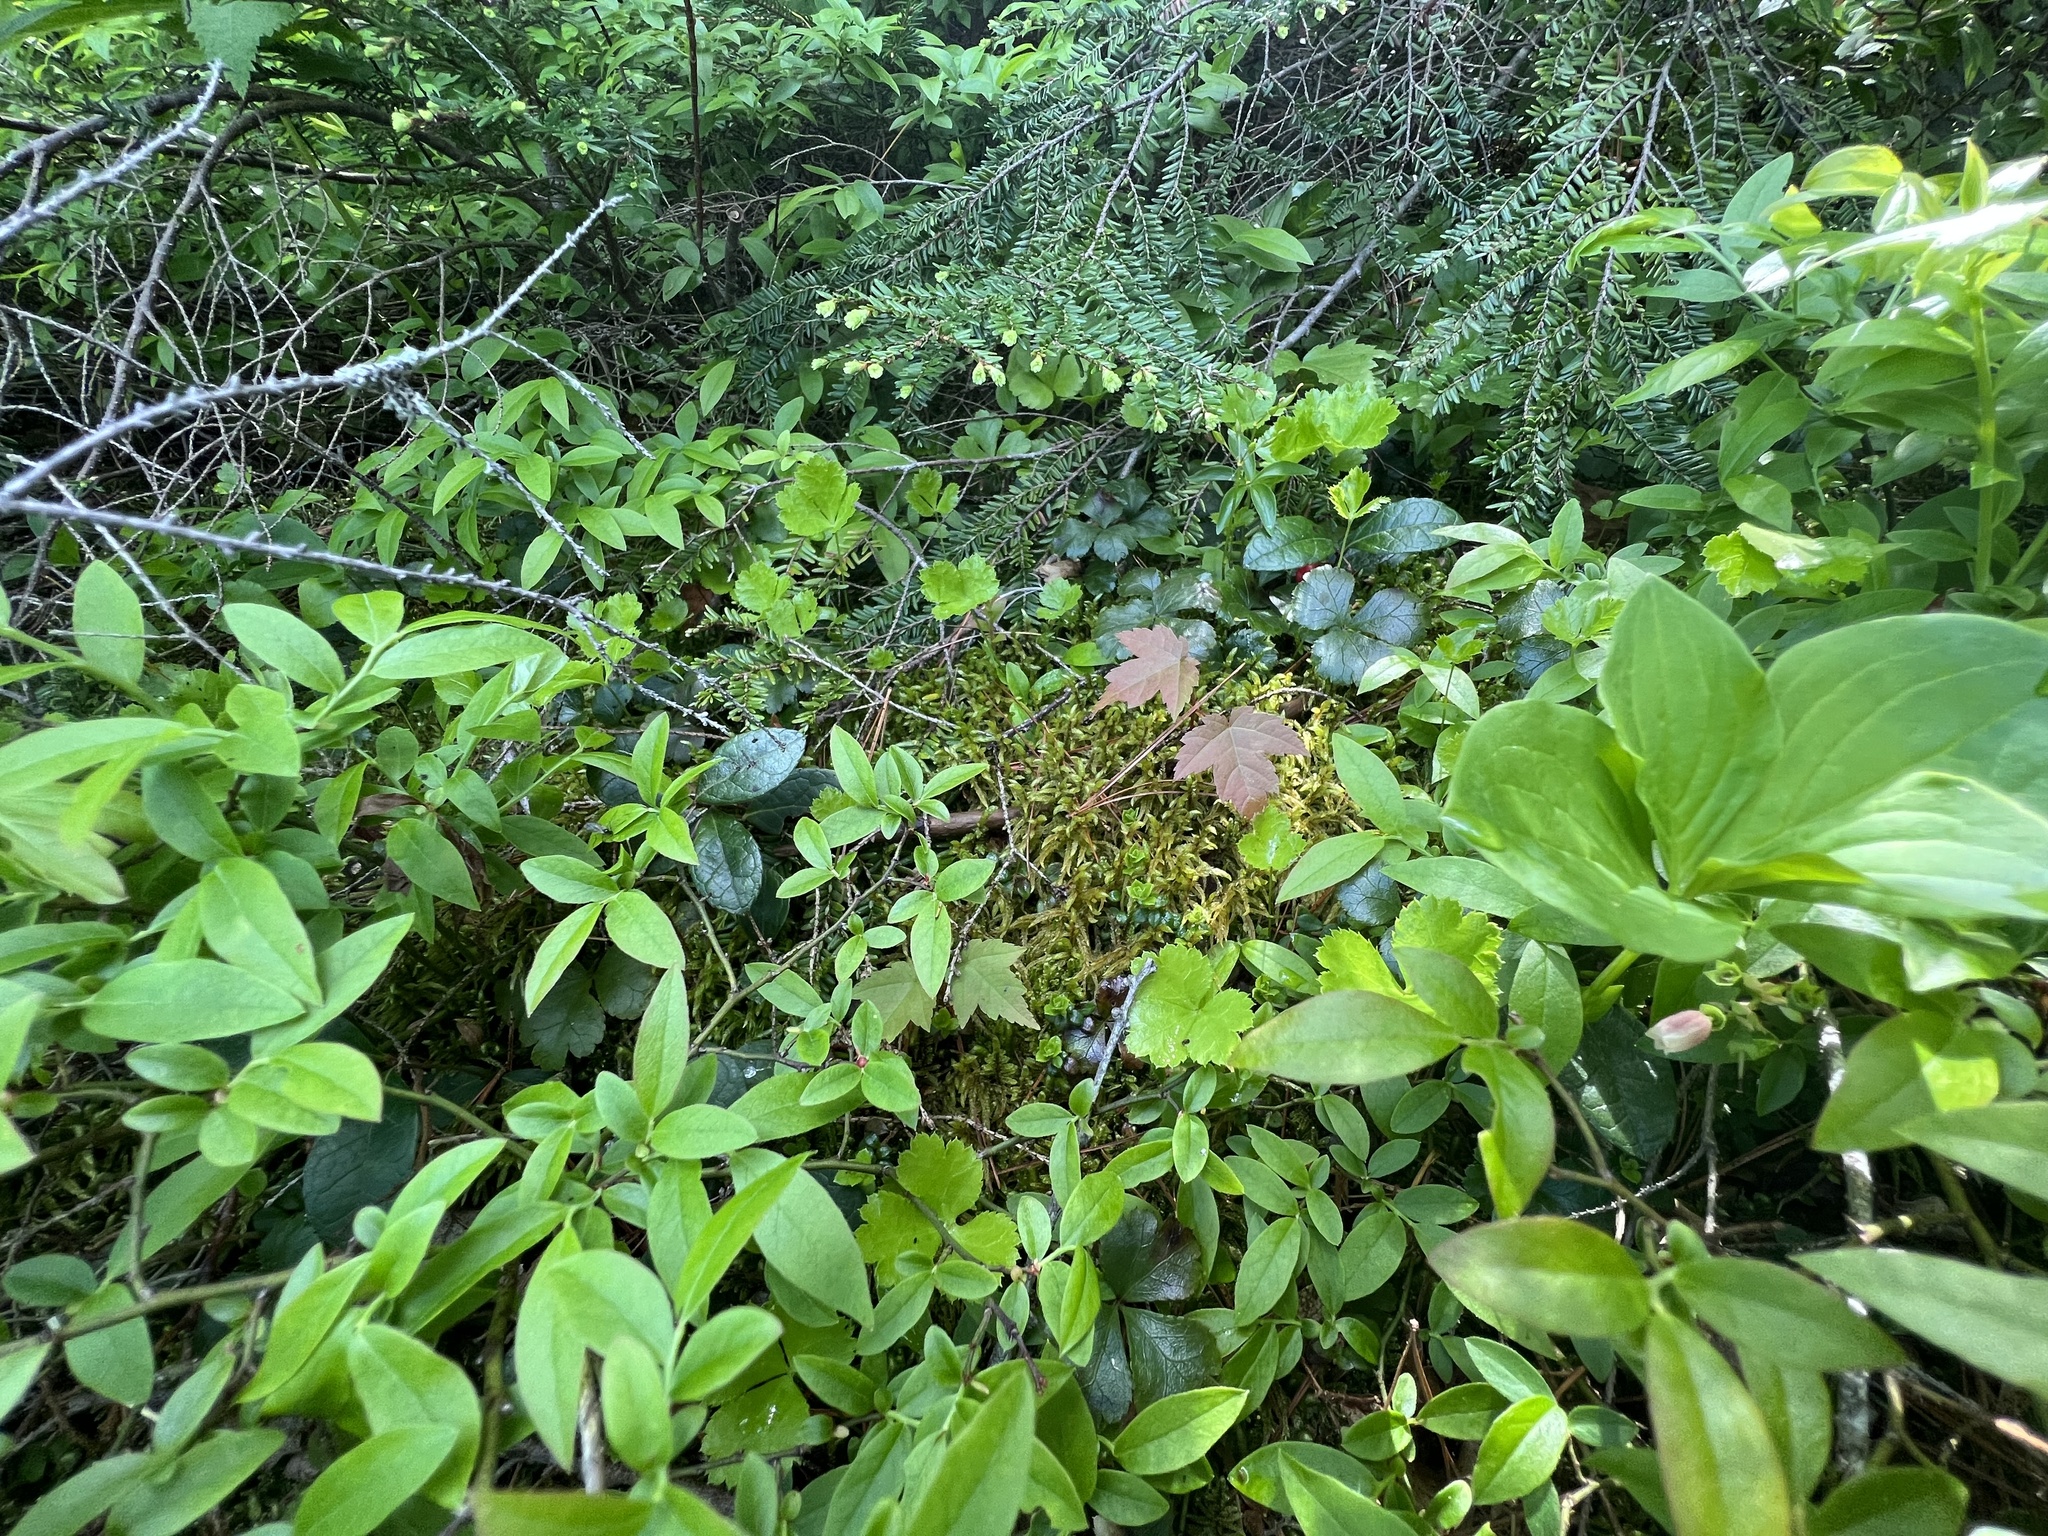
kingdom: Plantae
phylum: Tracheophyta
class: Magnoliopsida
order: Ranunculales
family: Ranunculaceae
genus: Coptis
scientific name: Coptis trifolia
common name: Canker-root
